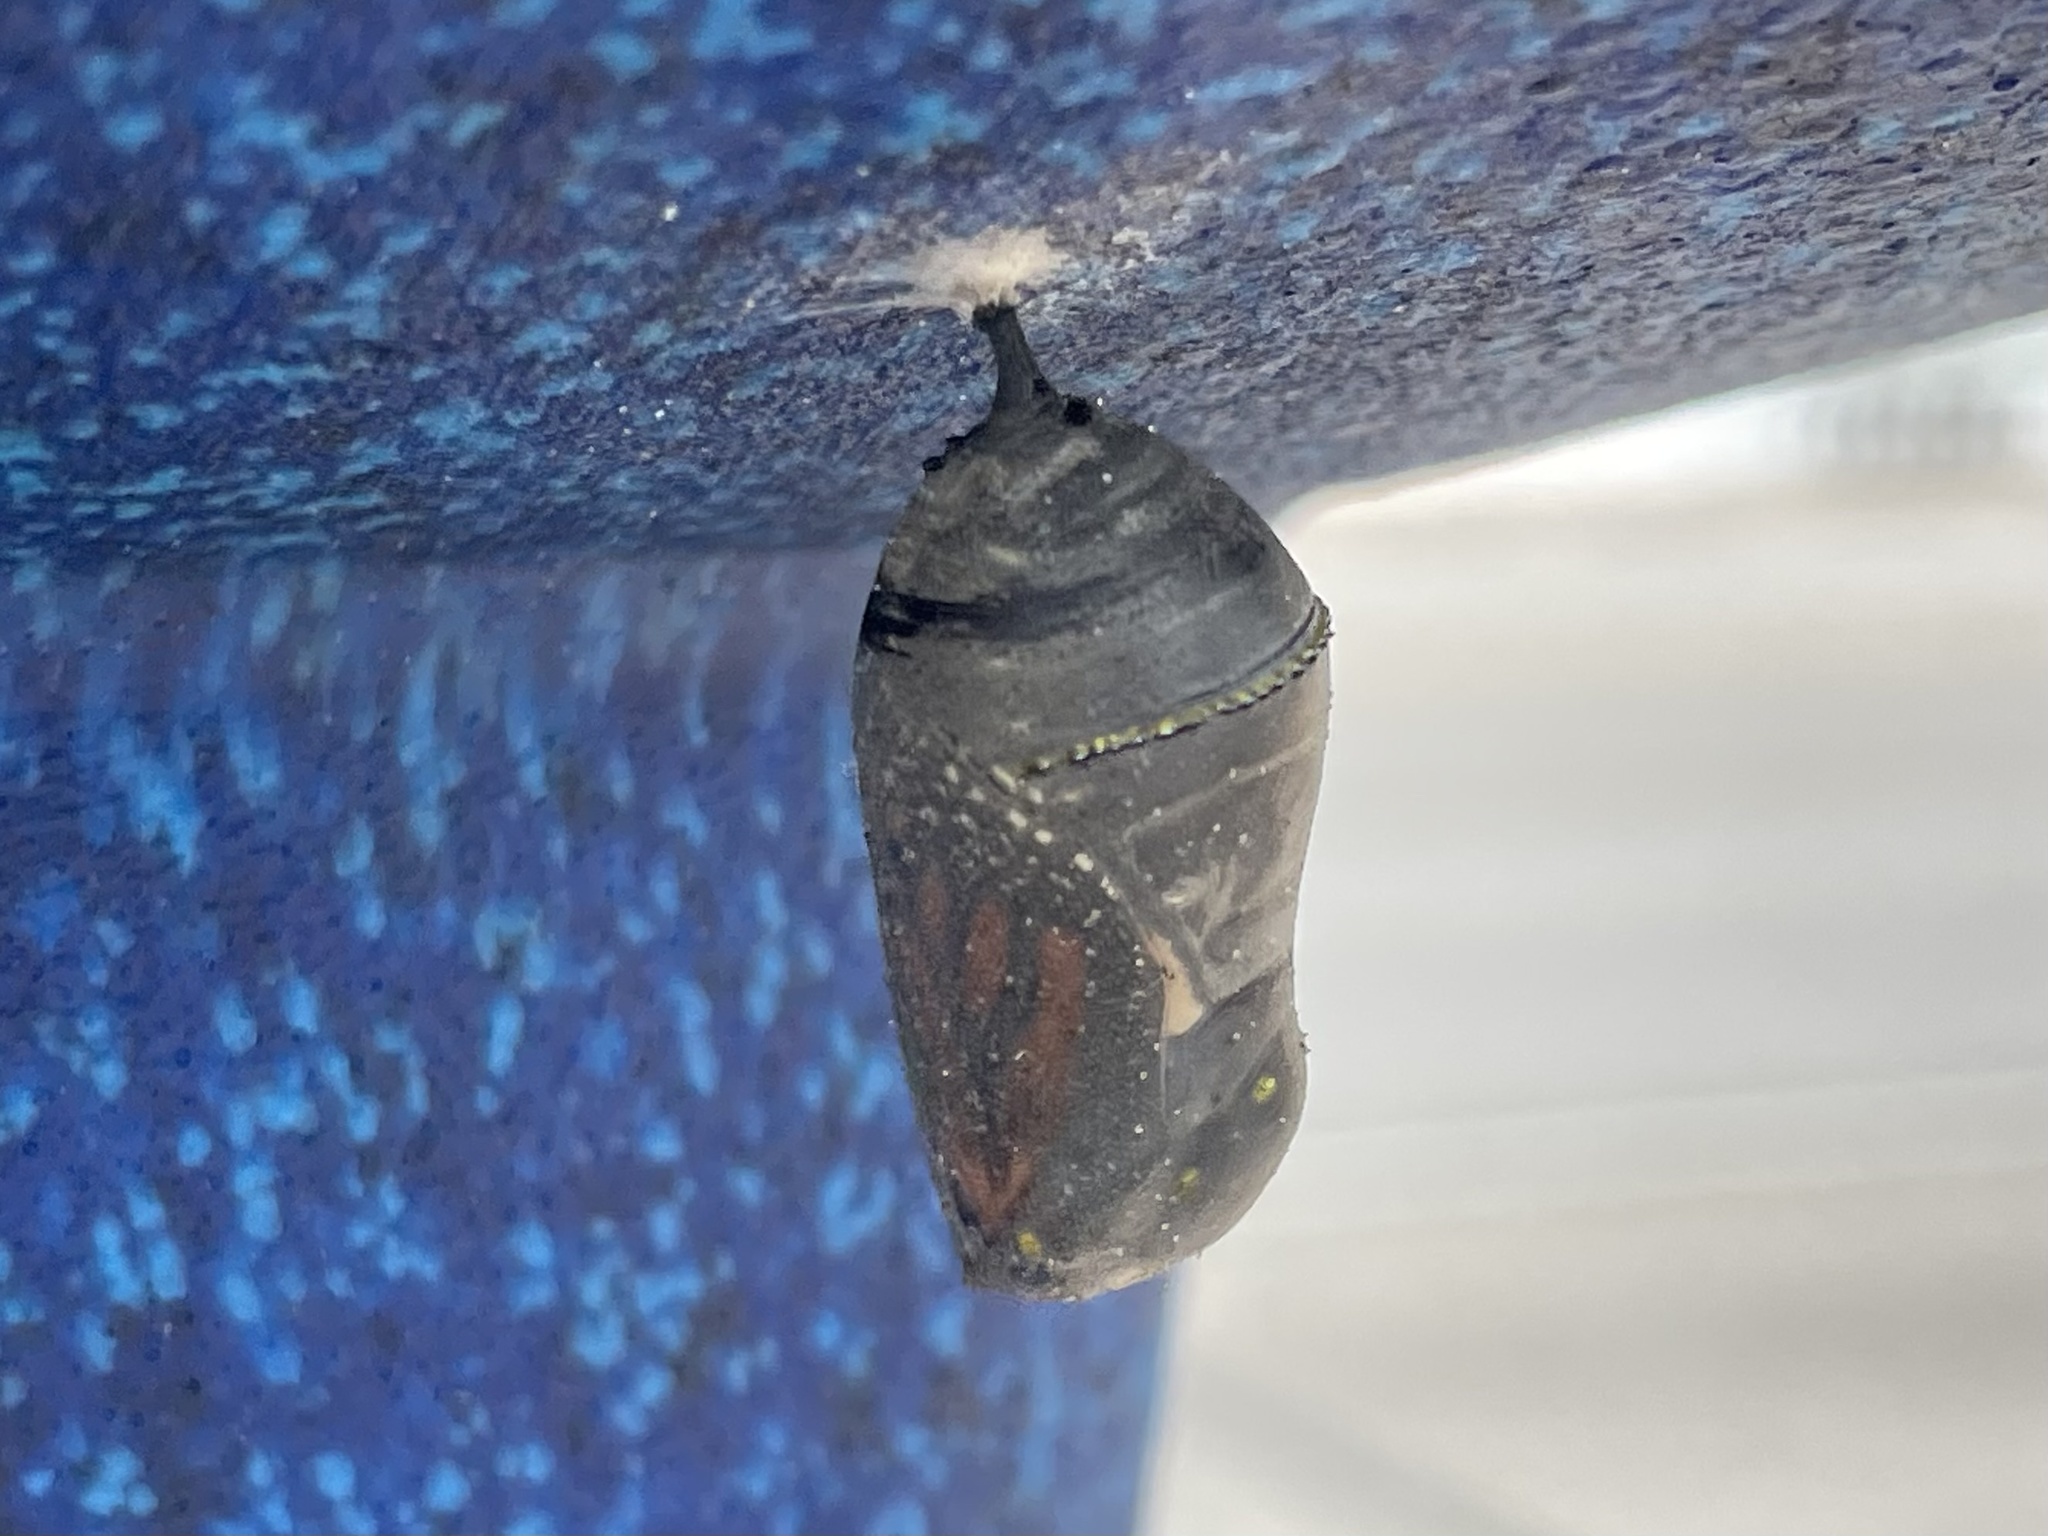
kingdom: Animalia
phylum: Arthropoda
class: Insecta
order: Lepidoptera
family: Nymphalidae
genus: Danaus
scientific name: Danaus plexippus
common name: Monarch
